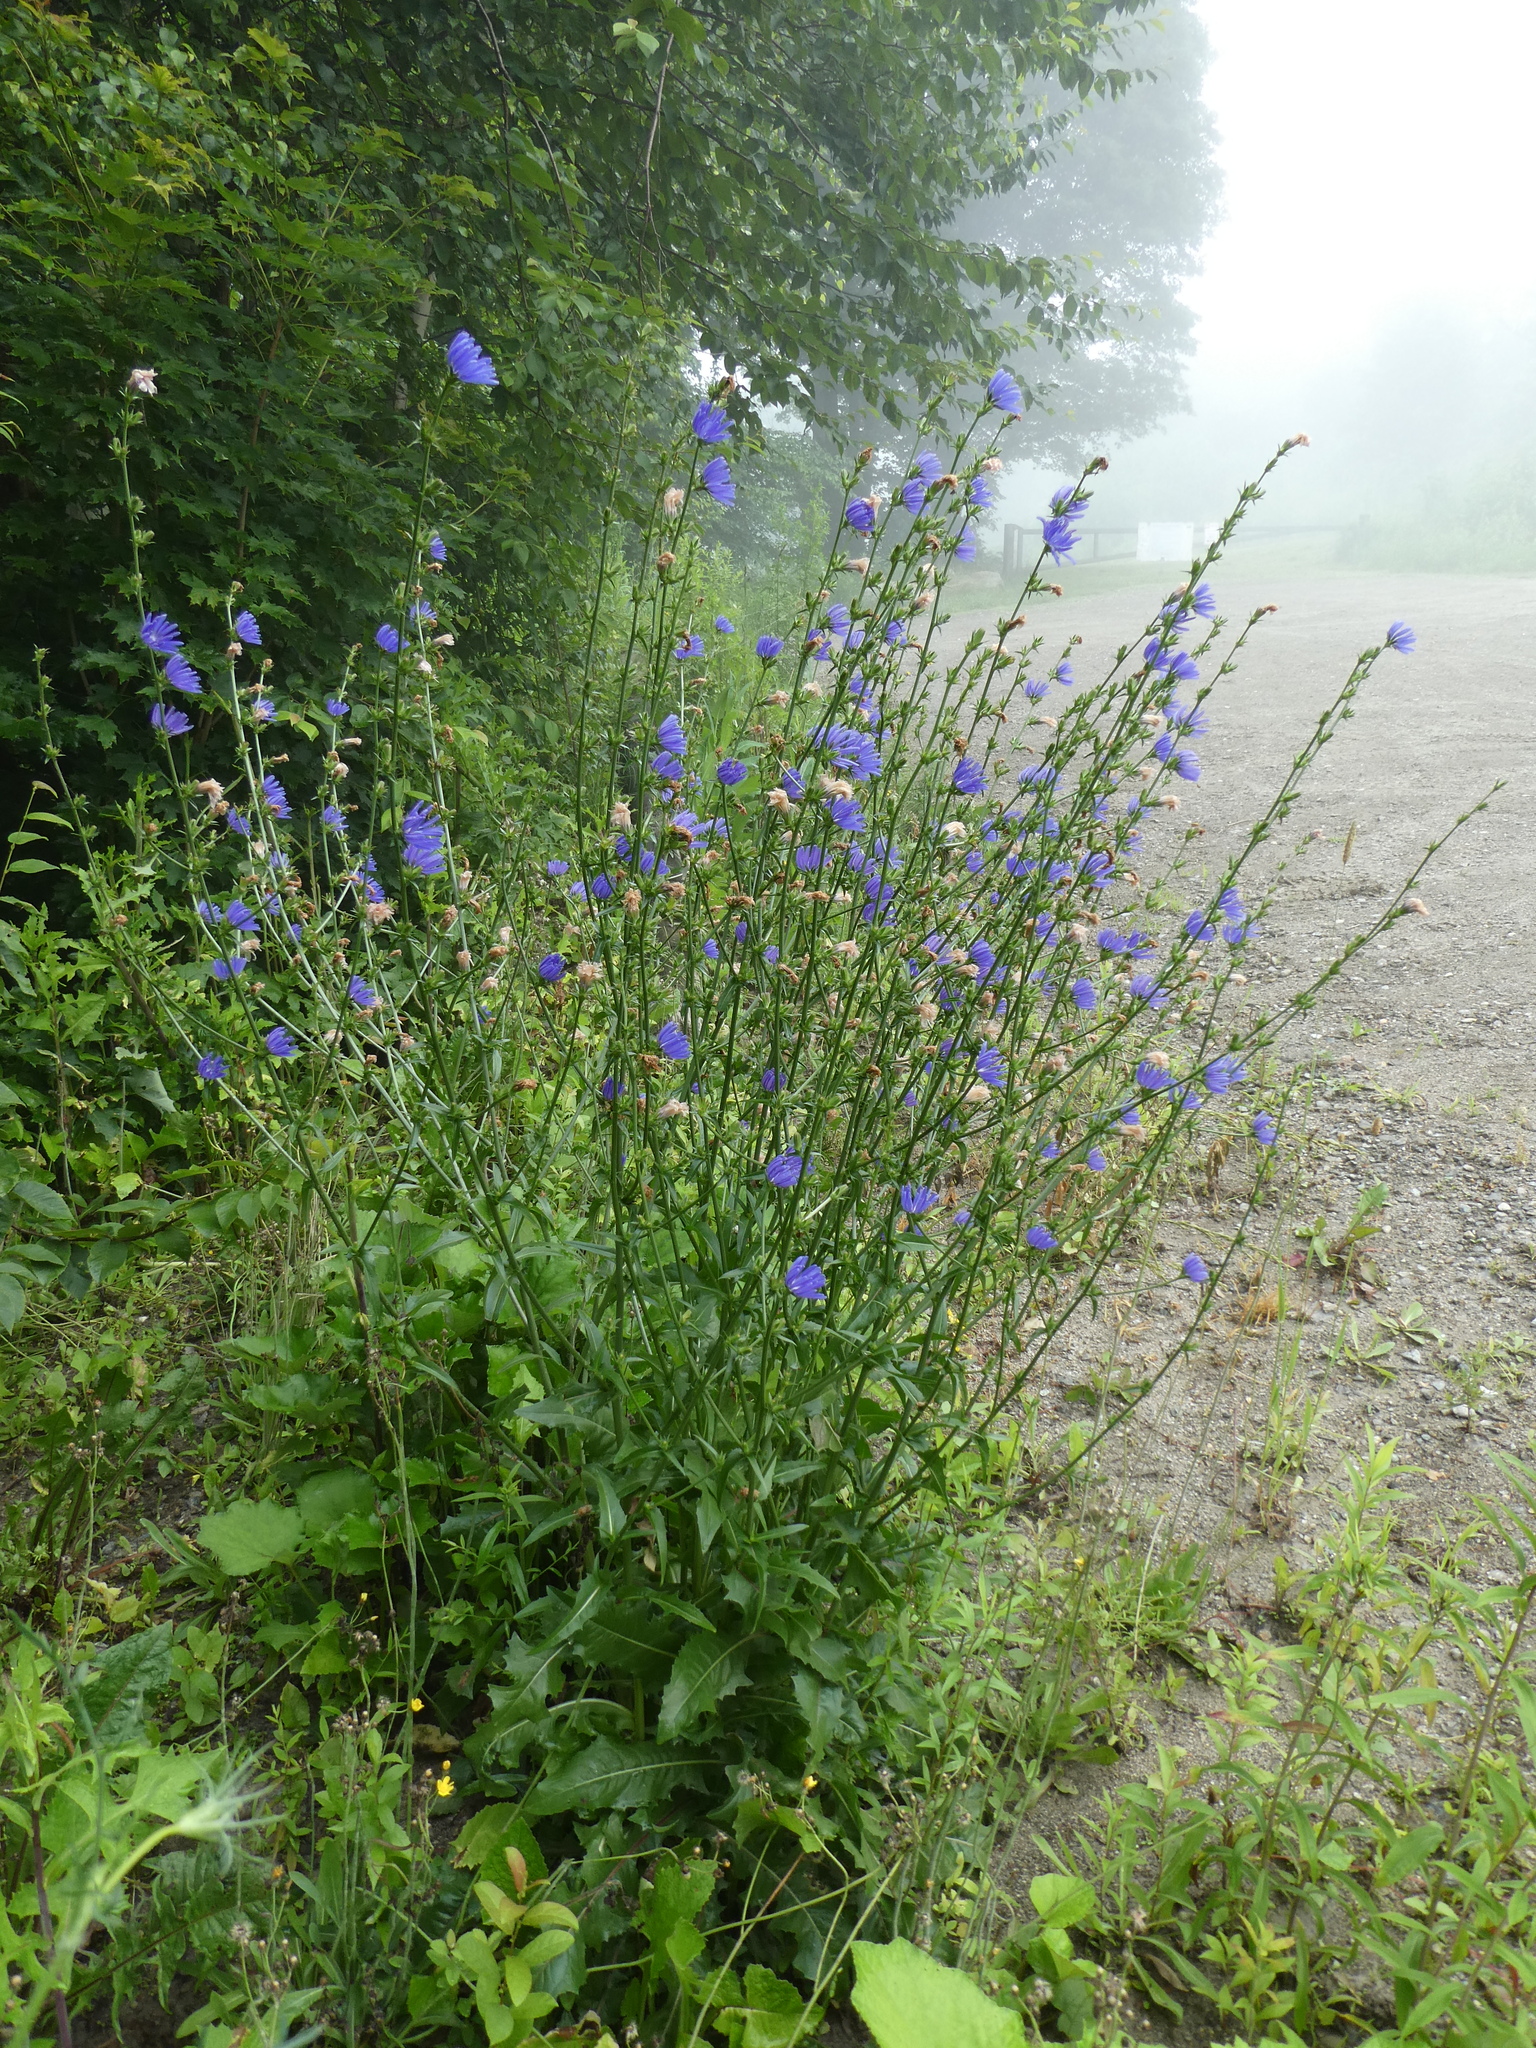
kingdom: Plantae
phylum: Tracheophyta
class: Magnoliopsida
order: Asterales
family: Asteraceae
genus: Cichorium
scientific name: Cichorium intybus
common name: Chicory
